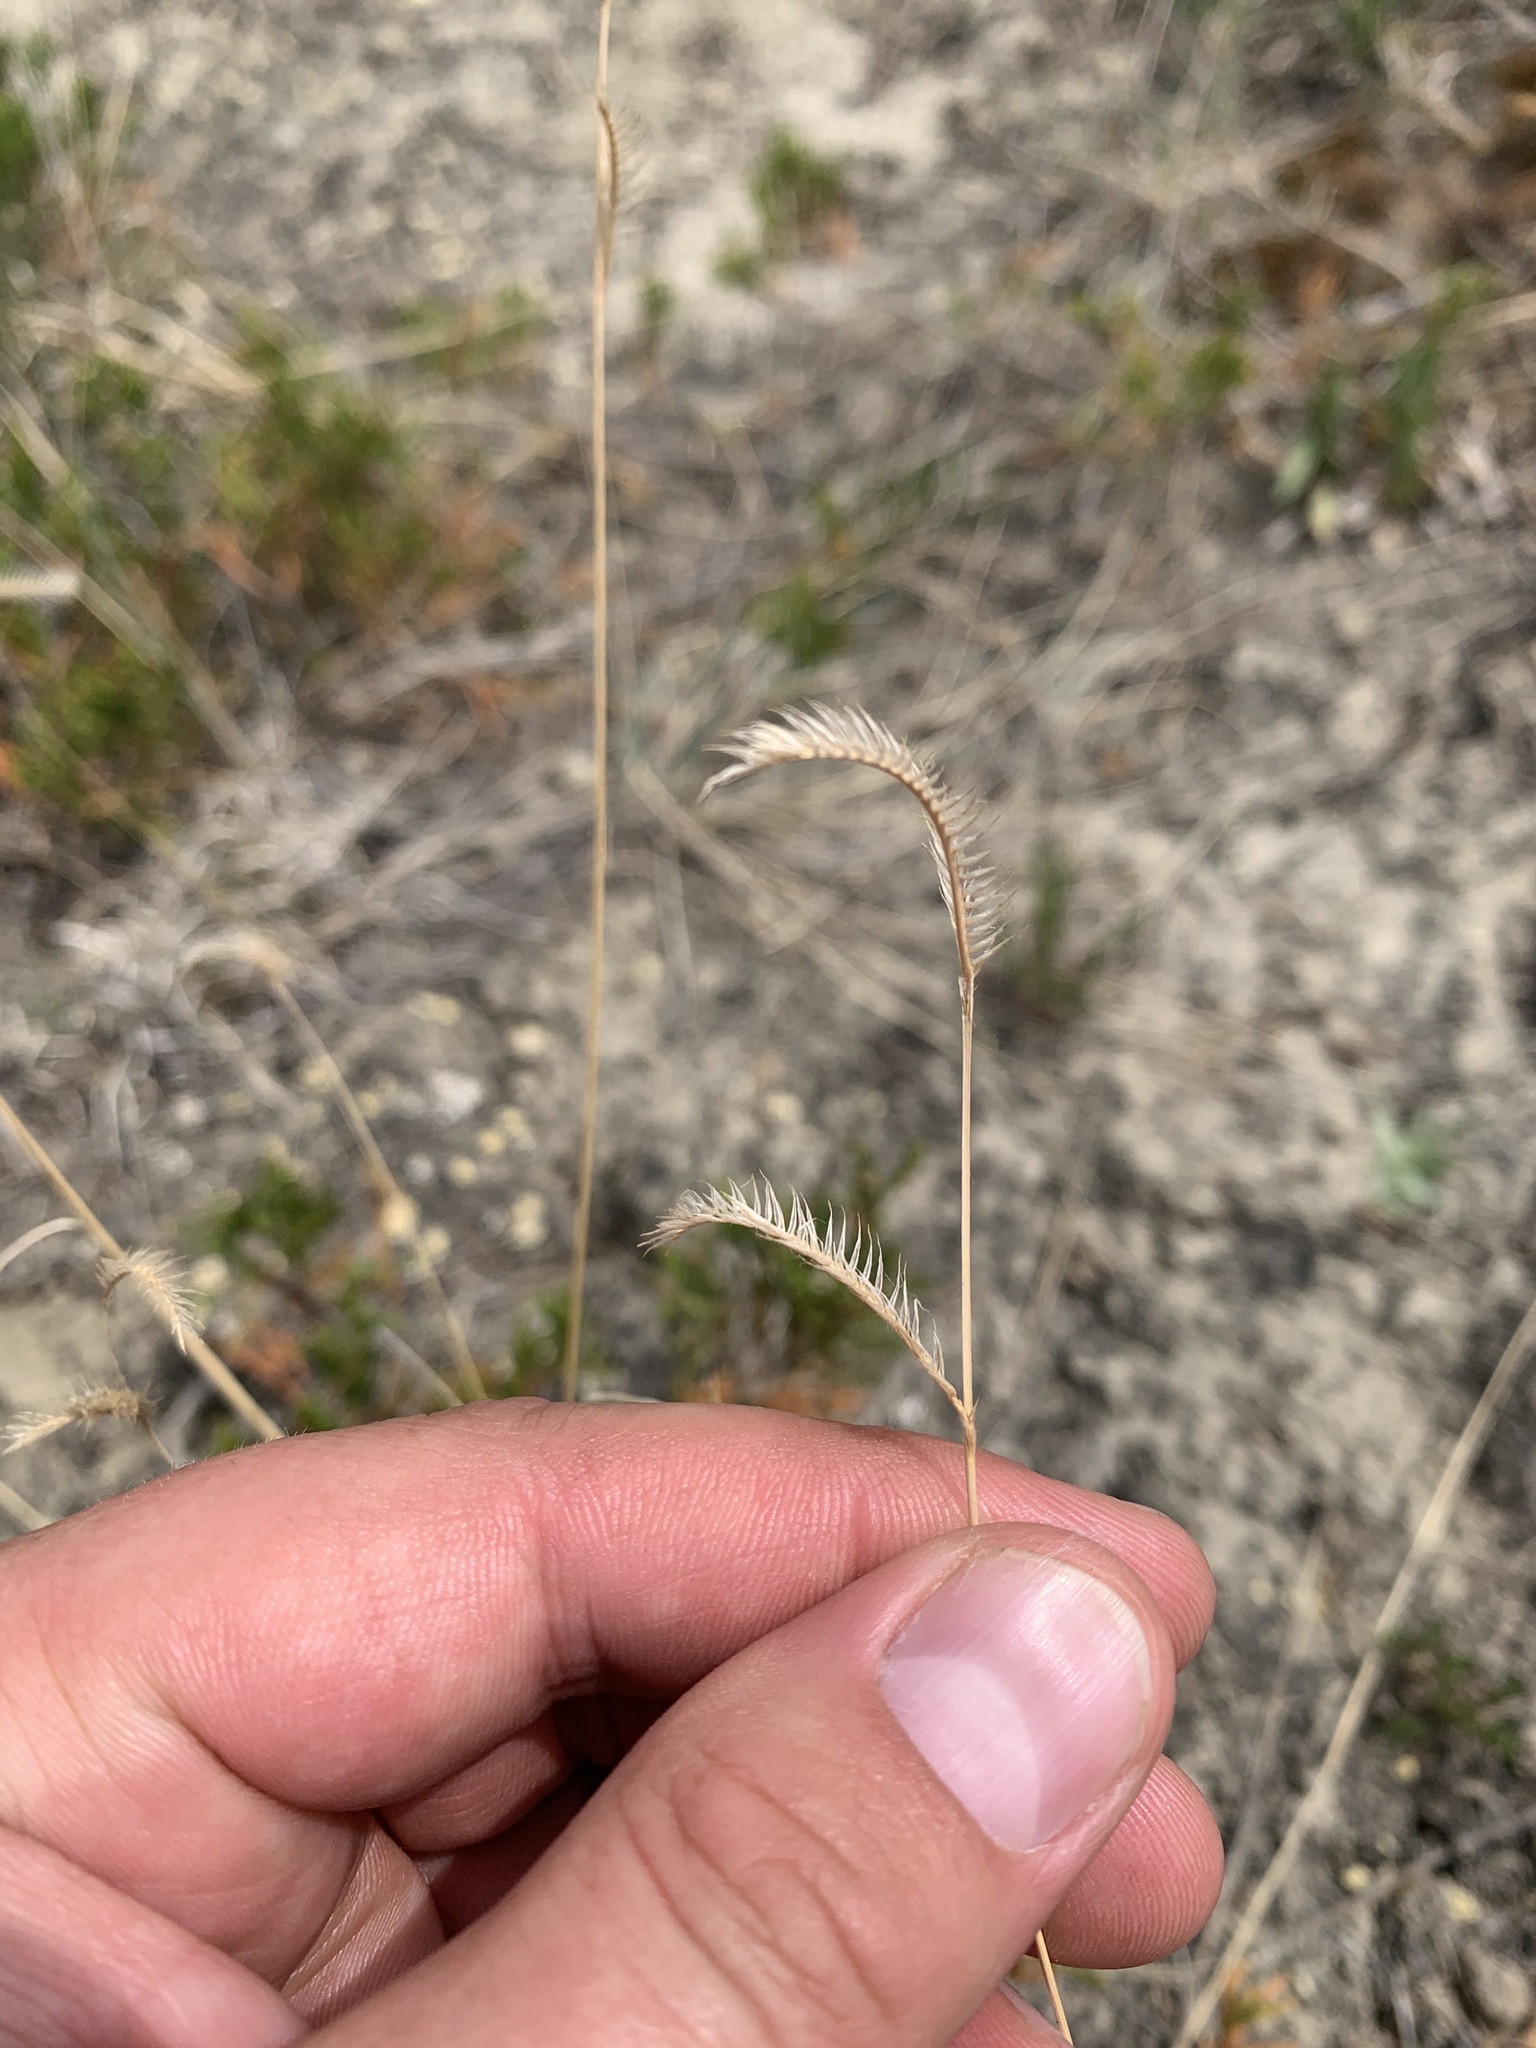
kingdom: Plantae
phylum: Tracheophyta
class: Liliopsida
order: Poales
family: Poaceae
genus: Bouteloua
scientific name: Bouteloua gracilis
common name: Blue grama
